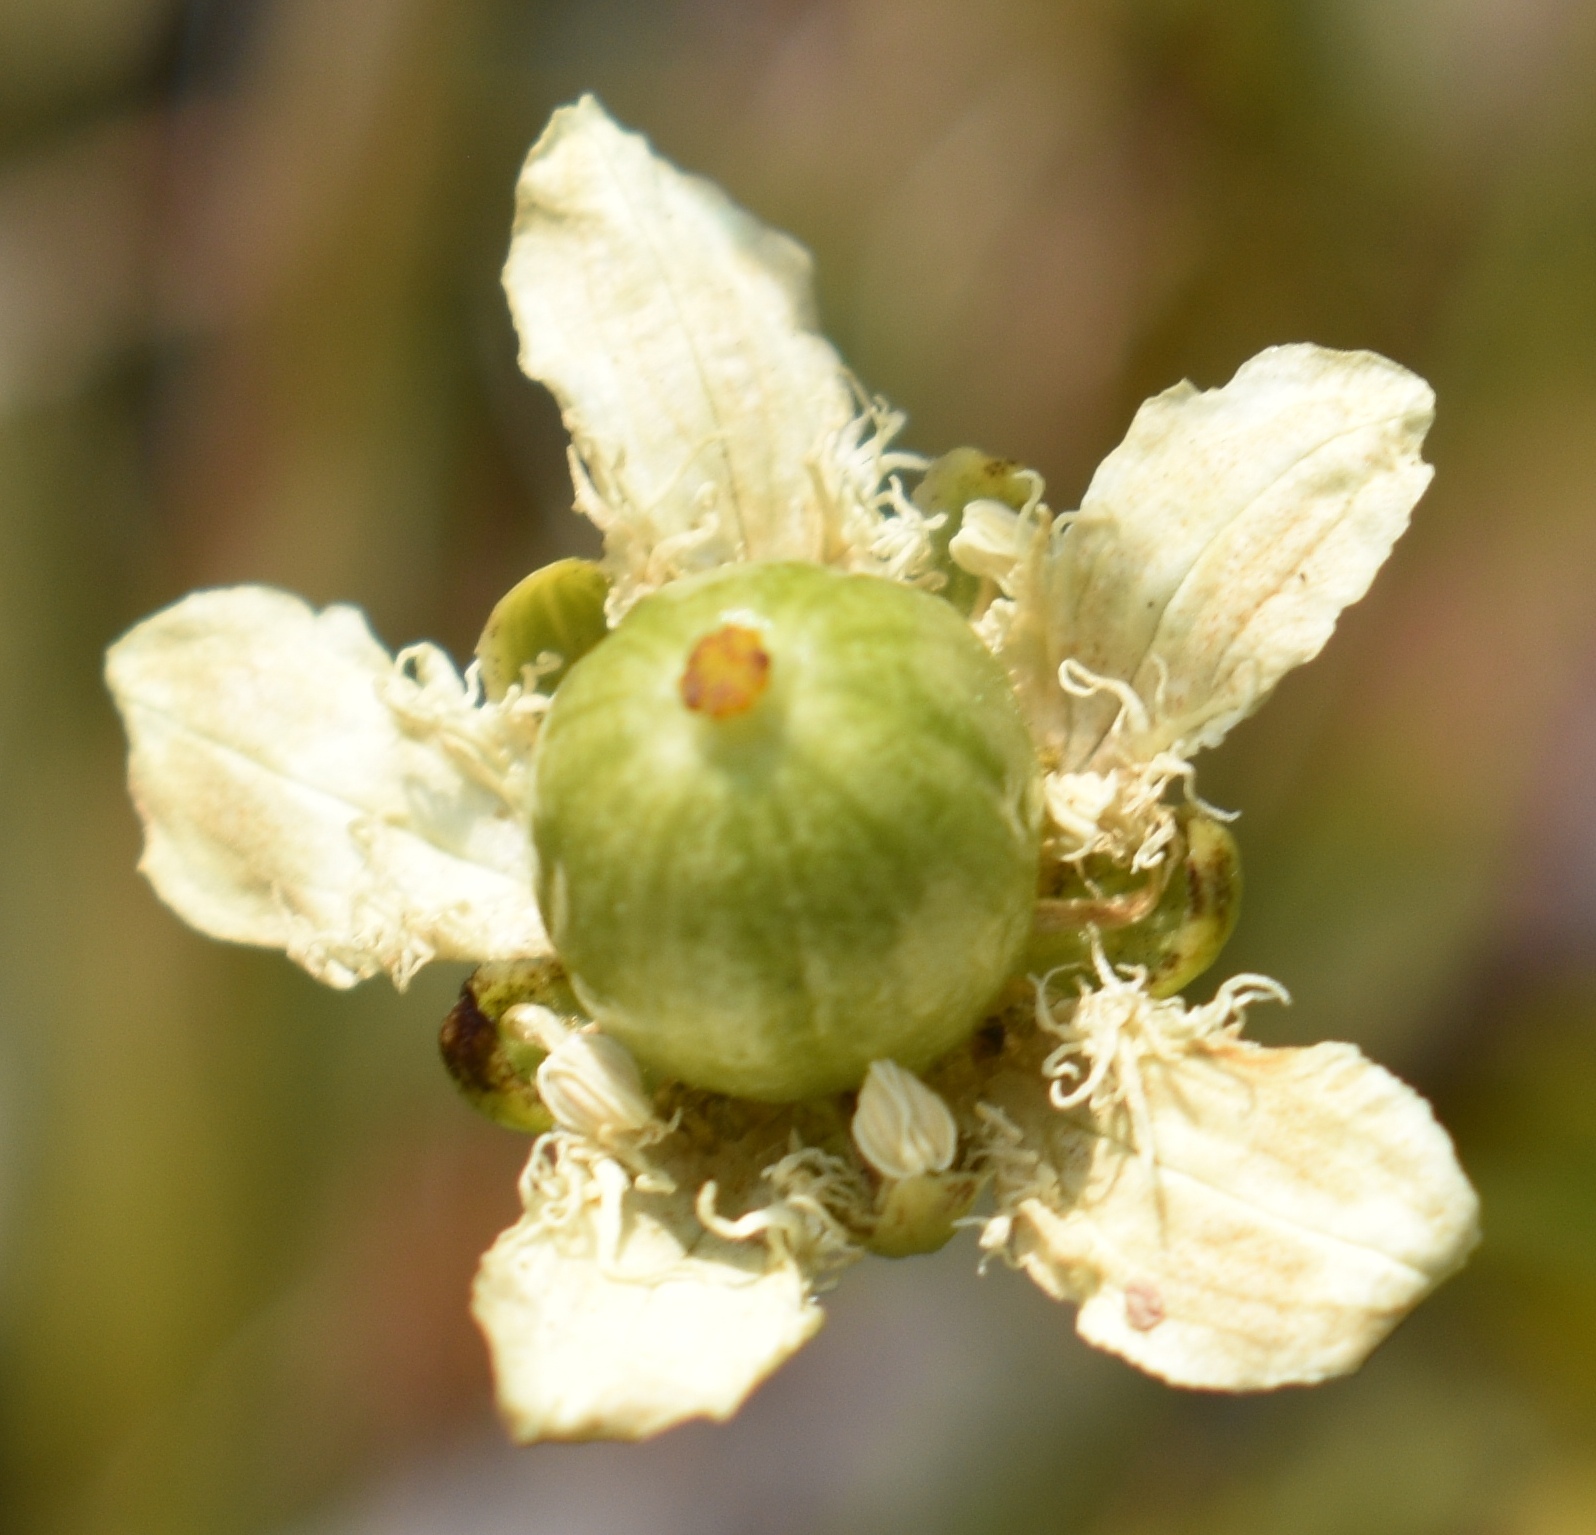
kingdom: Plantae
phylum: Tracheophyta
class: Magnoliopsida
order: Celastrales
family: Parnassiaceae
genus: Parnassia
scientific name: Parnassia fimbriata
